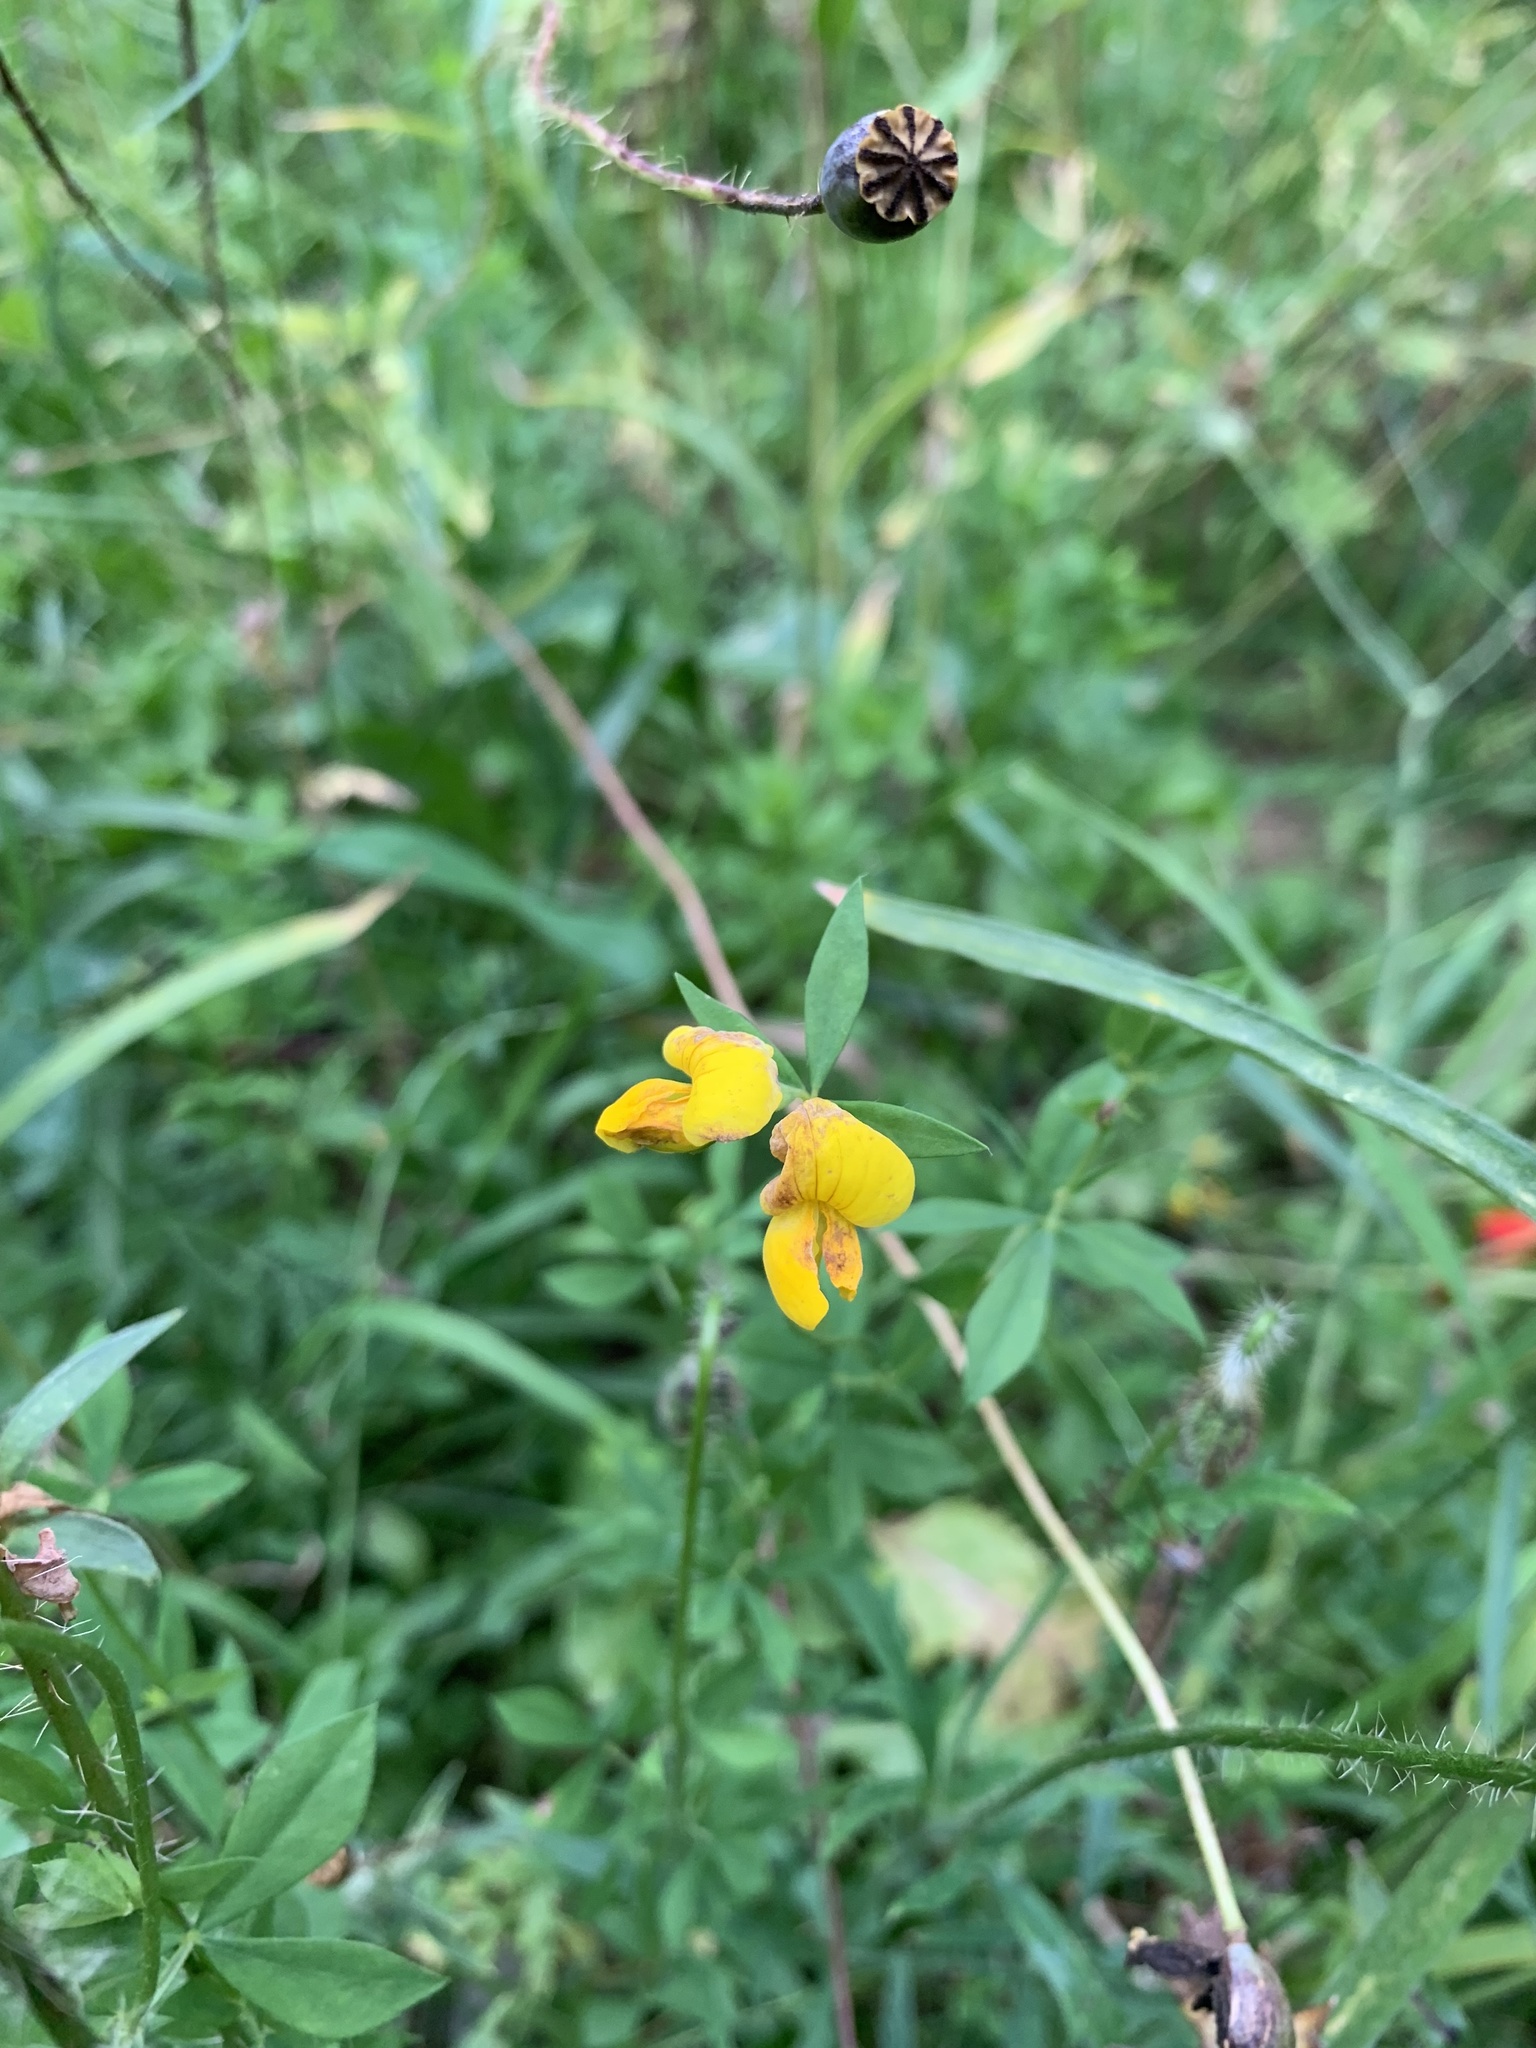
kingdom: Plantae
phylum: Tracheophyta
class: Magnoliopsida
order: Fabales
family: Fabaceae
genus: Lotus
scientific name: Lotus corniculatus
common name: Common bird's-foot-trefoil
